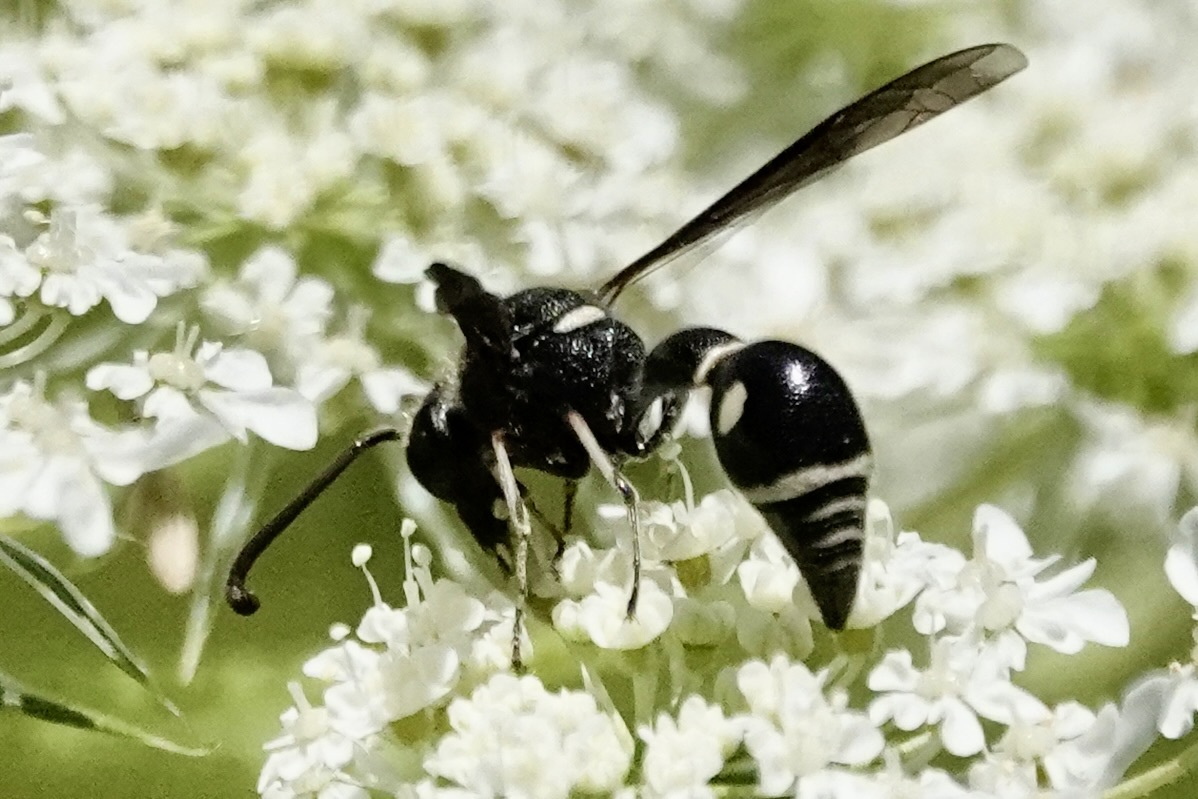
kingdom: Animalia
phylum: Arthropoda
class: Insecta
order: Hymenoptera
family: Vespidae
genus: Eumenes
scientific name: Eumenes fraternus
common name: Fraternal potter wasp
